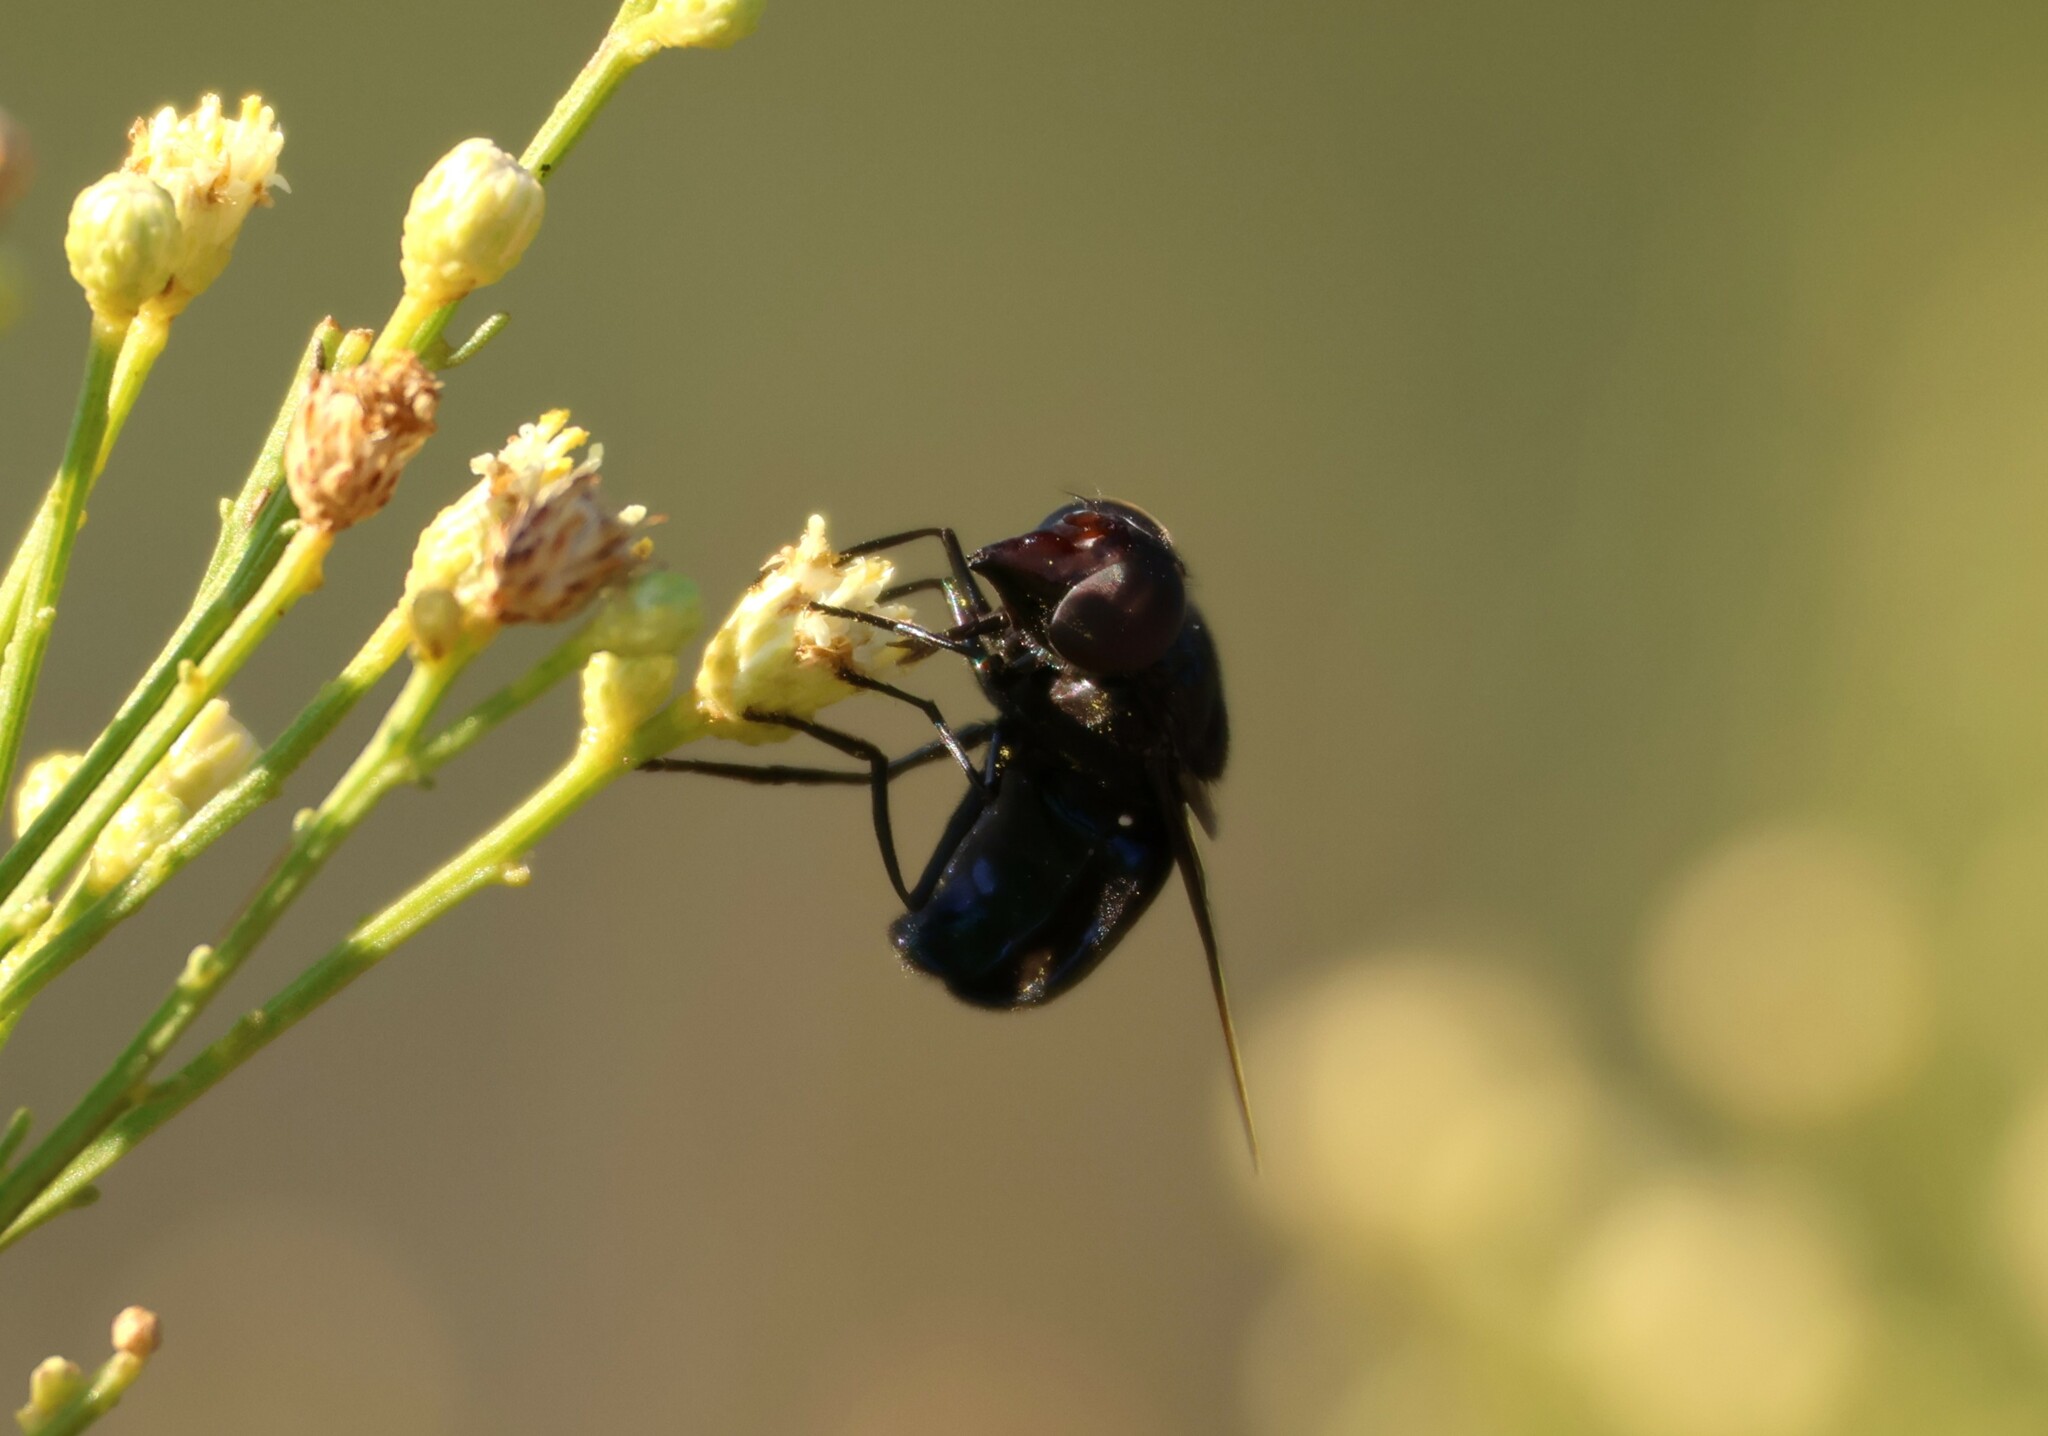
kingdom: Animalia
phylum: Arthropoda
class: Insecta
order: Diptera
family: Syrphidae
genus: Copestylum
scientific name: Copestylum mexicanum
